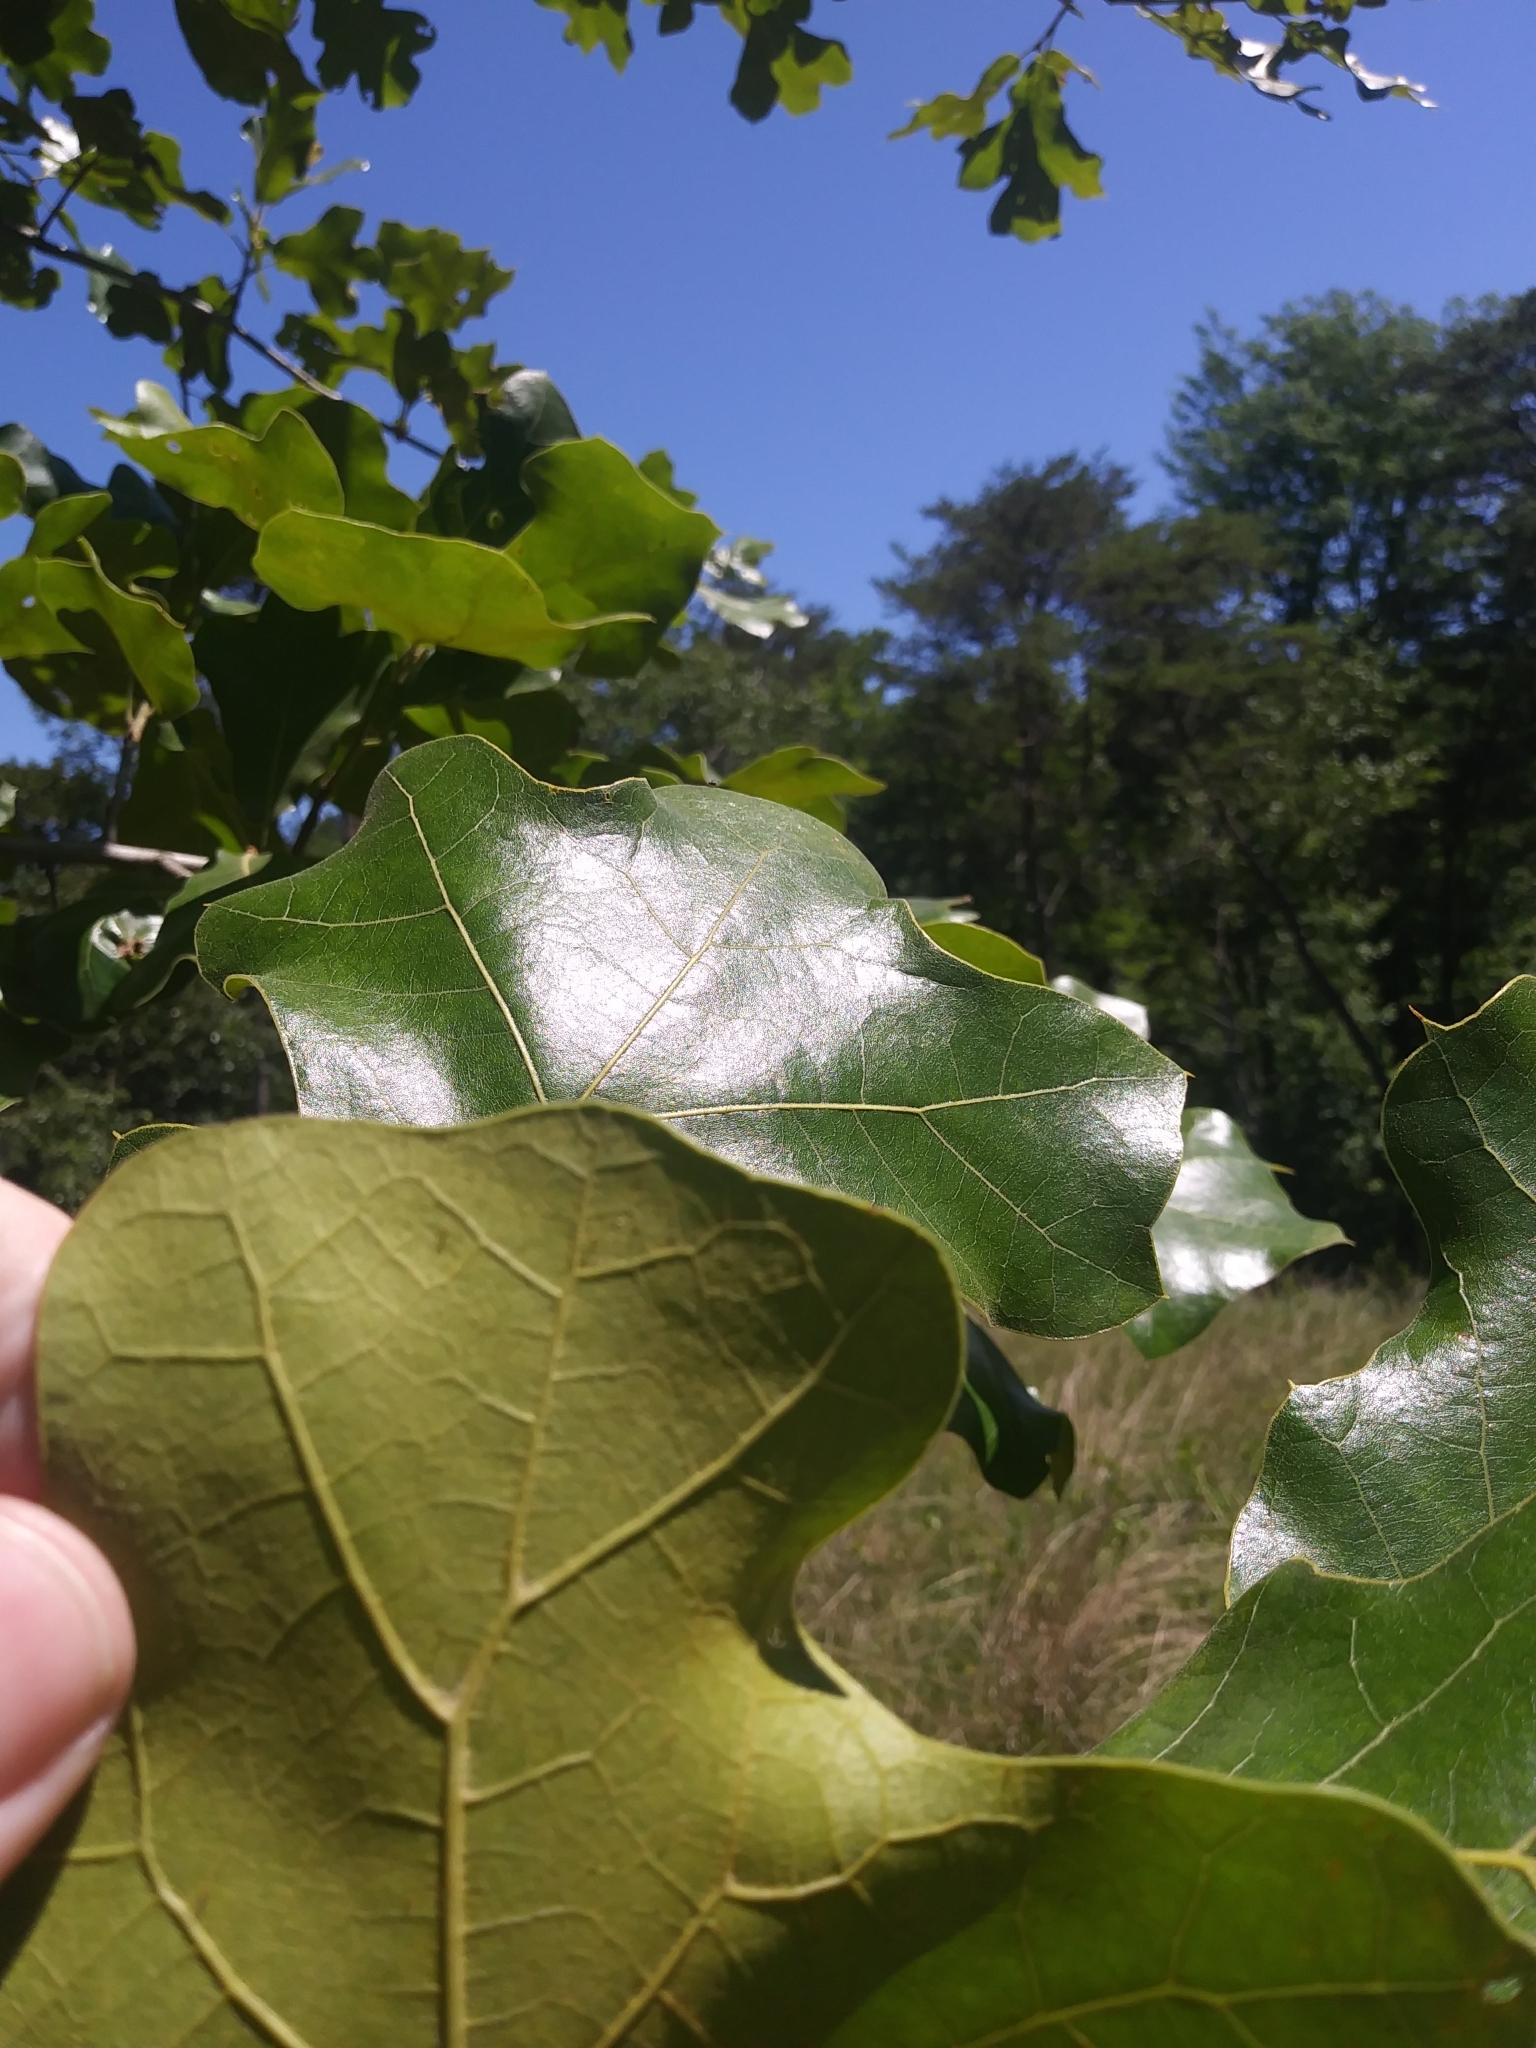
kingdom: Plantae
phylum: Tracheophyta
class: Magnoliopsida
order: Fagales
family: Fagaceae
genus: Quercus
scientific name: Quercus marilandica
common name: Blackjack oak
